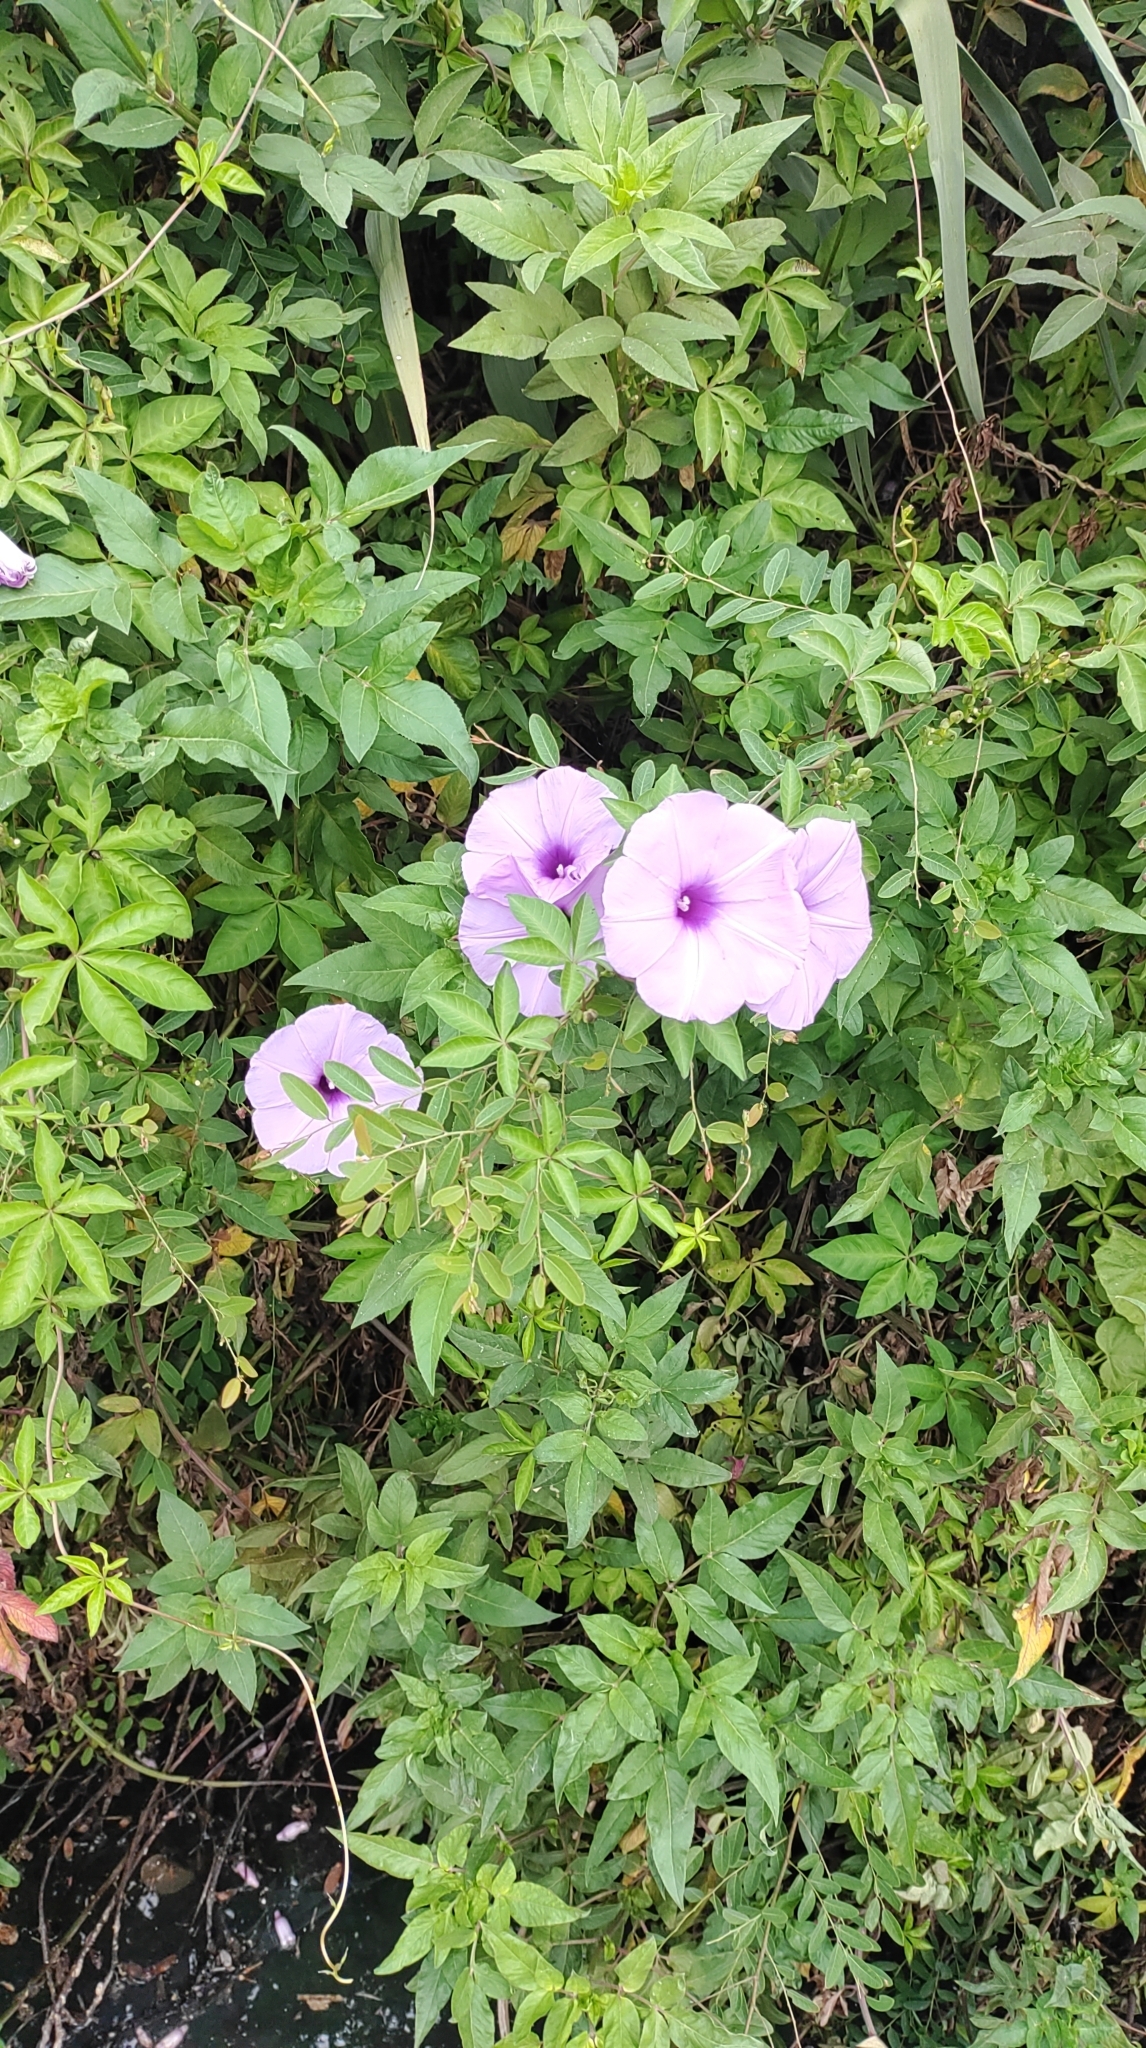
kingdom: Plantae
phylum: Tracheophyta
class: Magnoliopsida
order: Solanales
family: Convolvulaceae
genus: Ipomoea
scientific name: Ipomoea cairica
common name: Mile a minute vine
